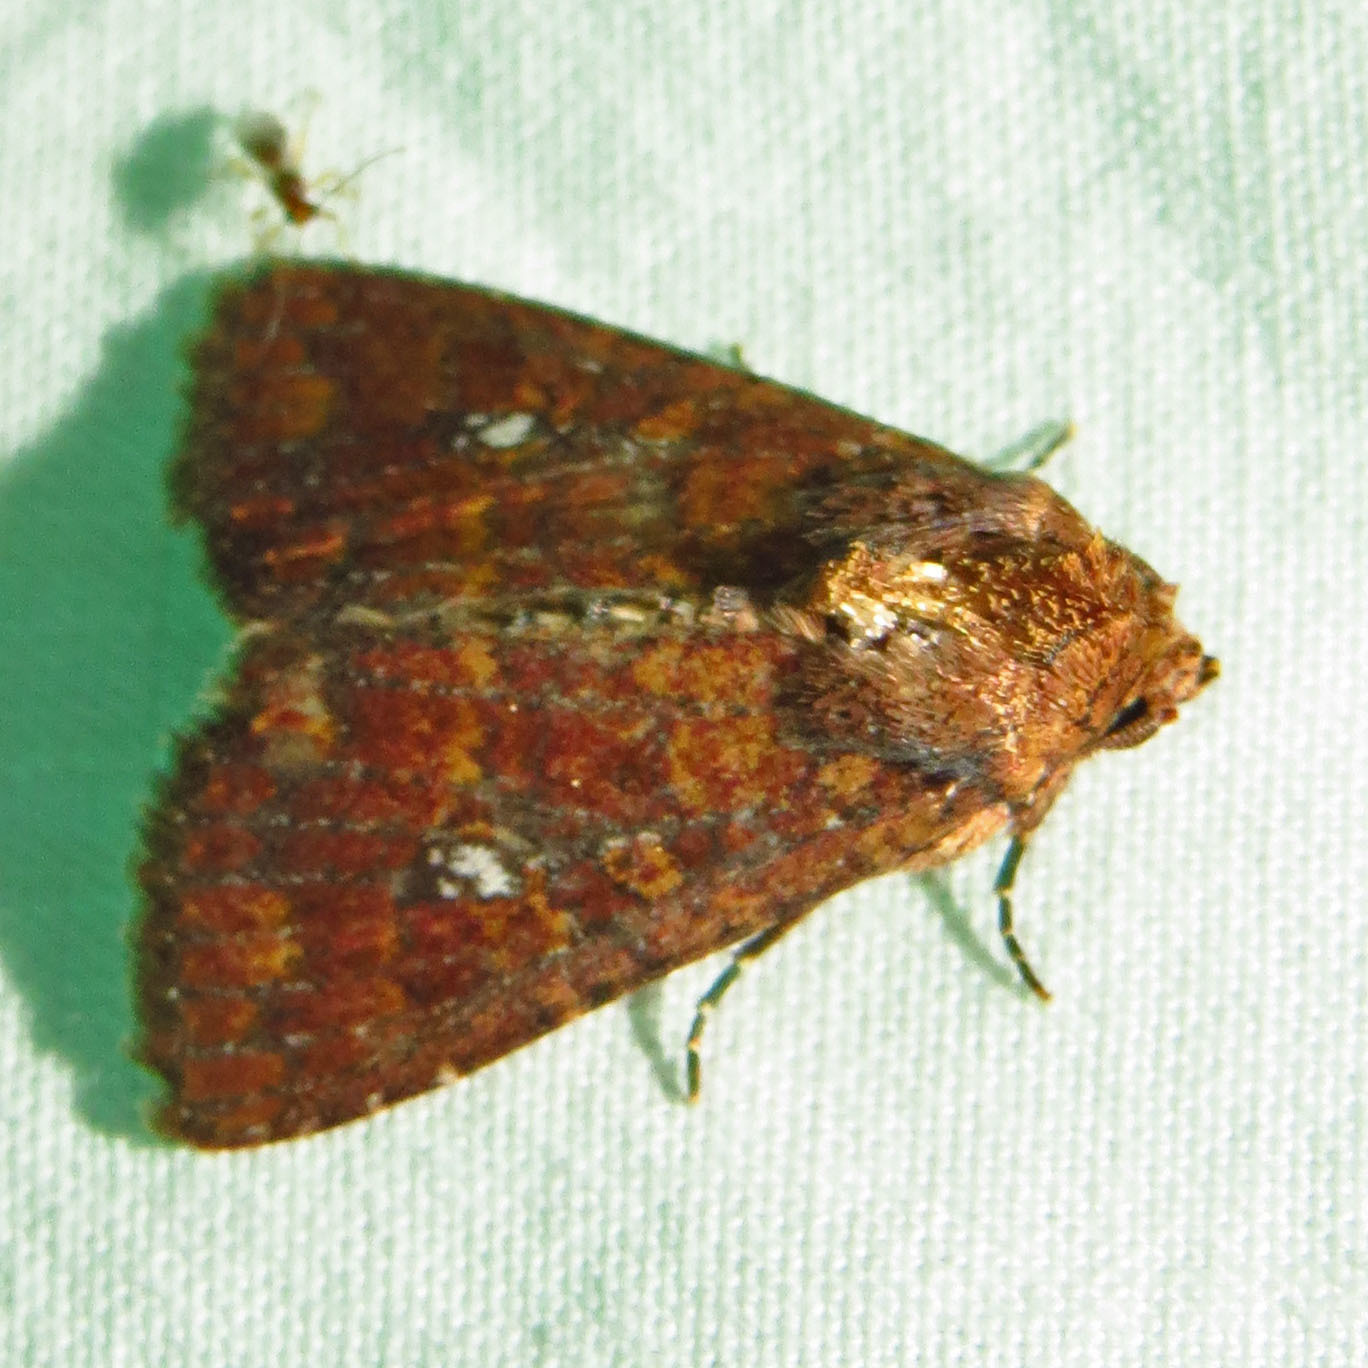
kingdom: Animalia
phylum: Arthropoda
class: Insecta
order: Lepidoptera
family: Noctuidae
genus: Condica
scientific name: Condica mobilis
